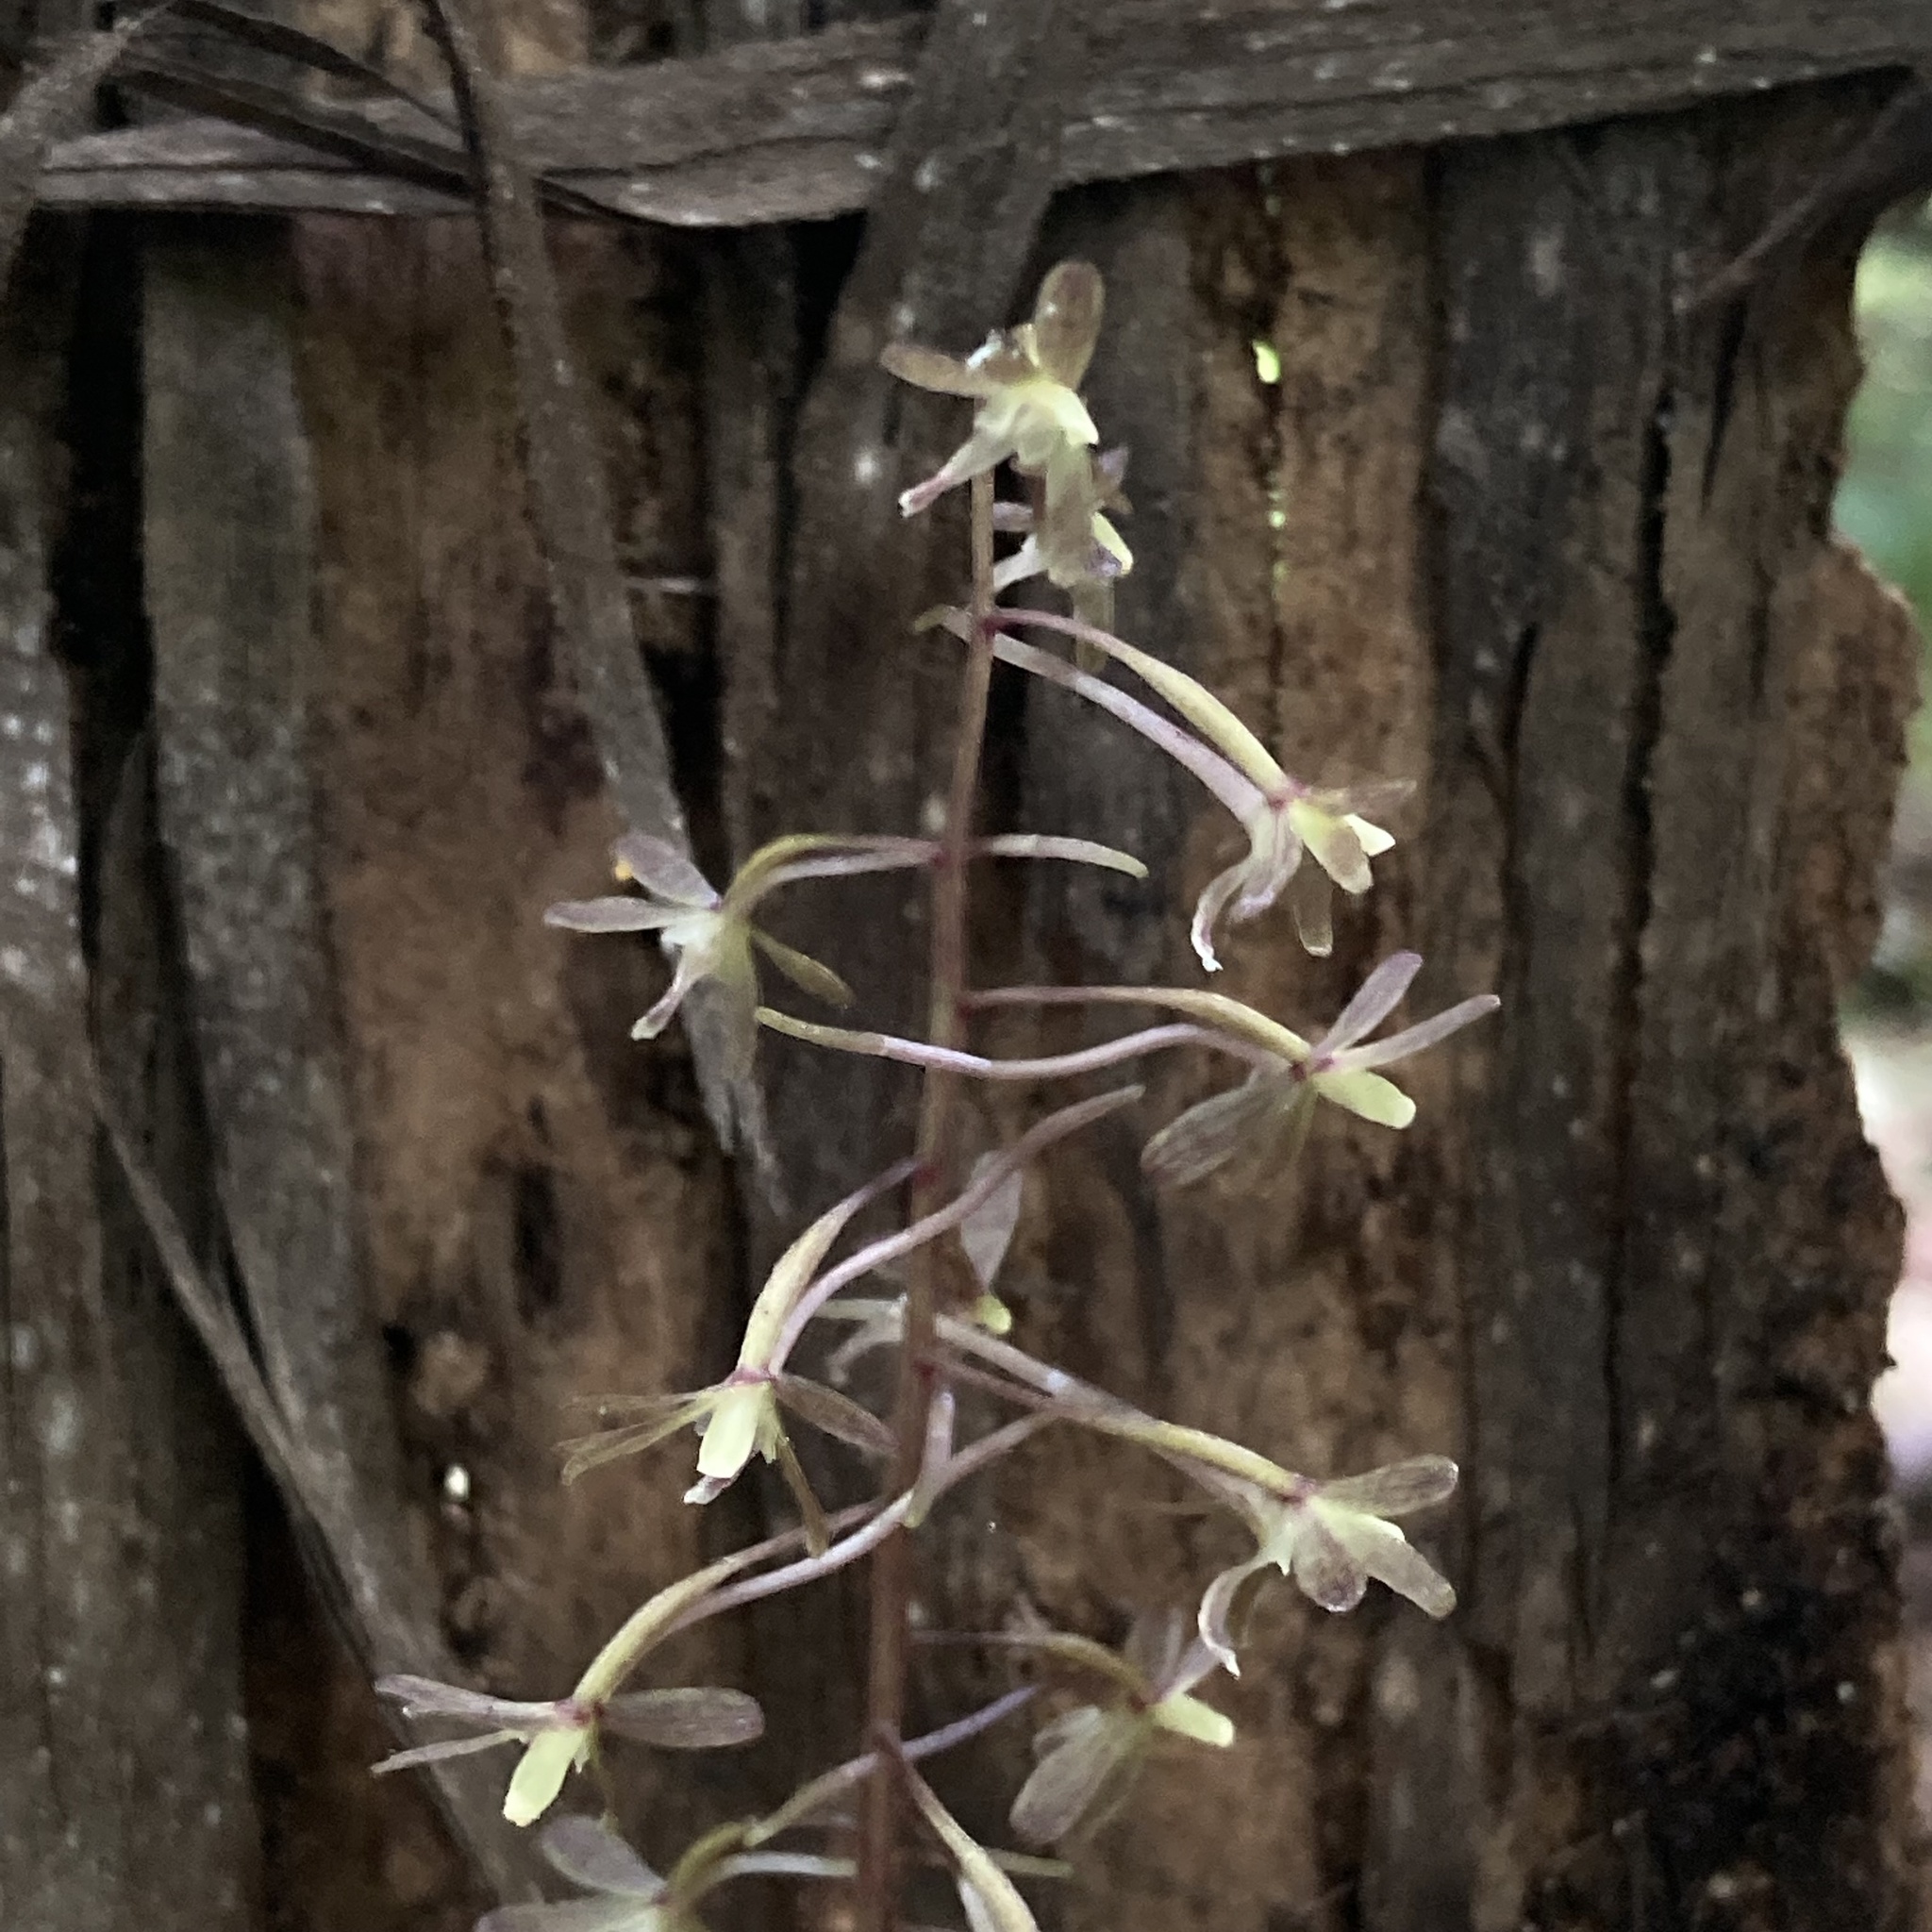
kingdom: Plantae
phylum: Tracheophyta
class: Liliopsida
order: Asparagales
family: Orchidaceae
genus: Tipularia
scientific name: Tipularia discolor
